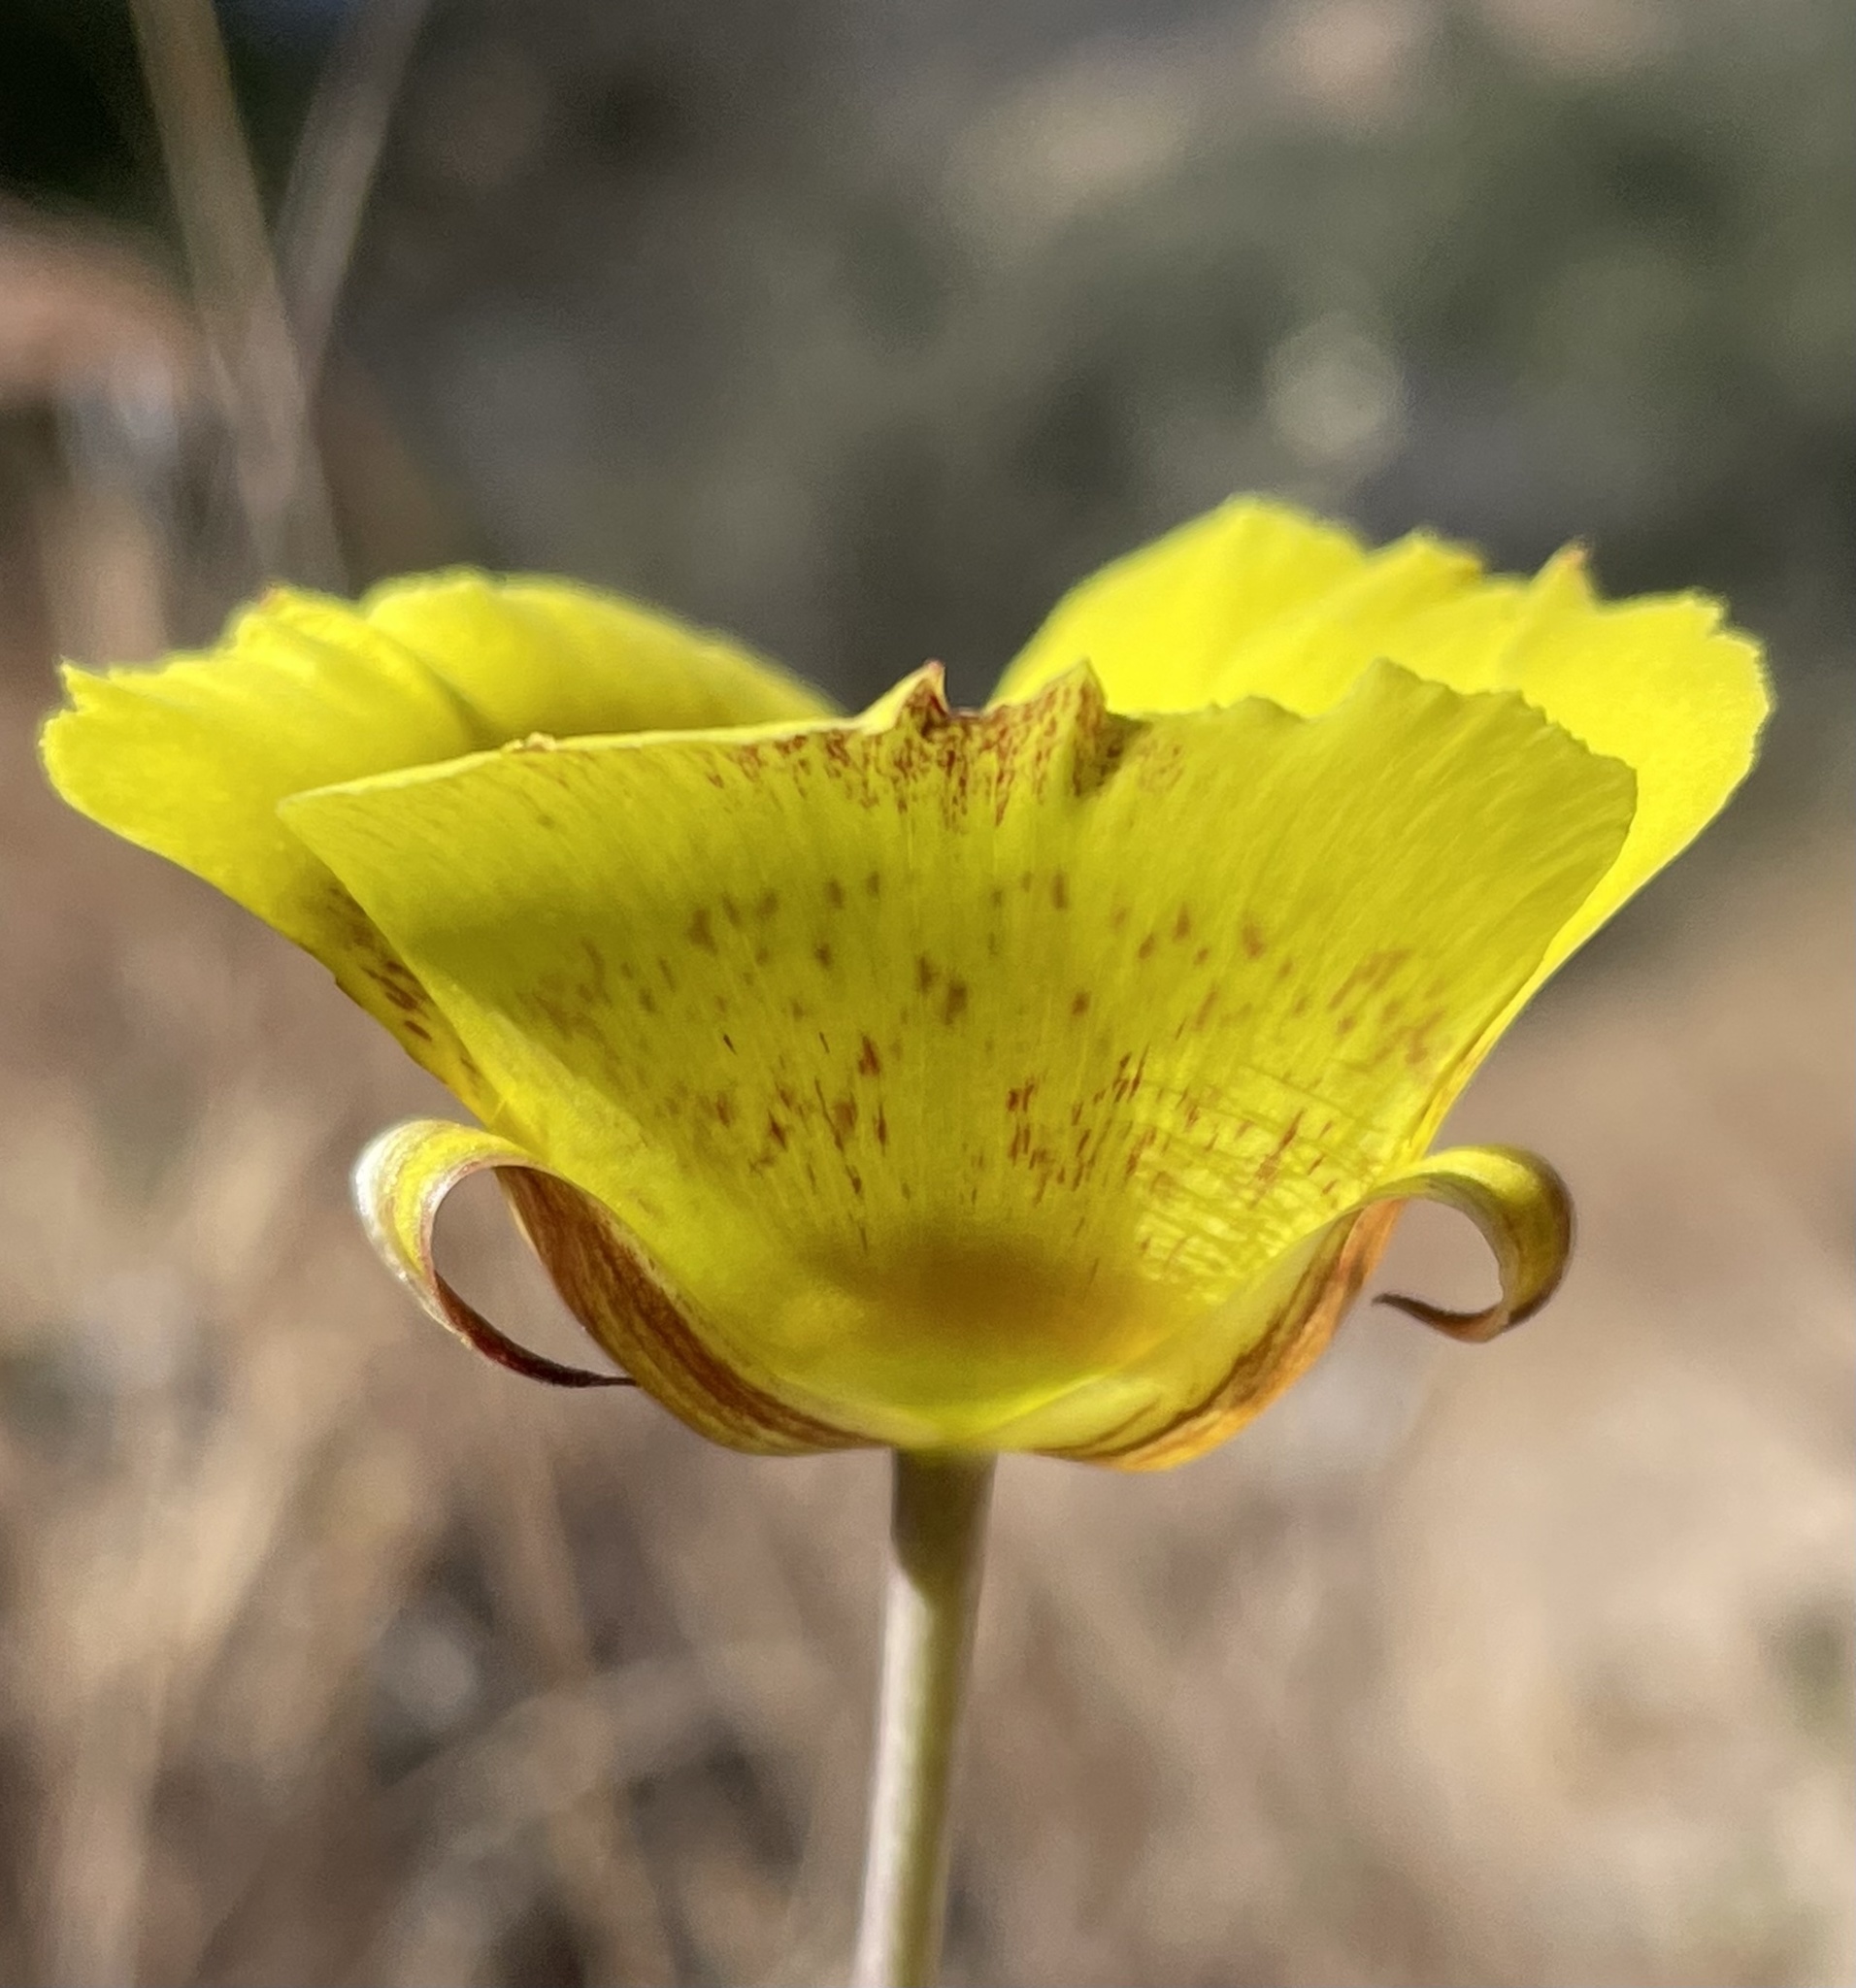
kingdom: Plantae
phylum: Tracheophyta
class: Liliopsida
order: Liliales
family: Liliaceae
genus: Calochortus
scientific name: Calochortus luteus
